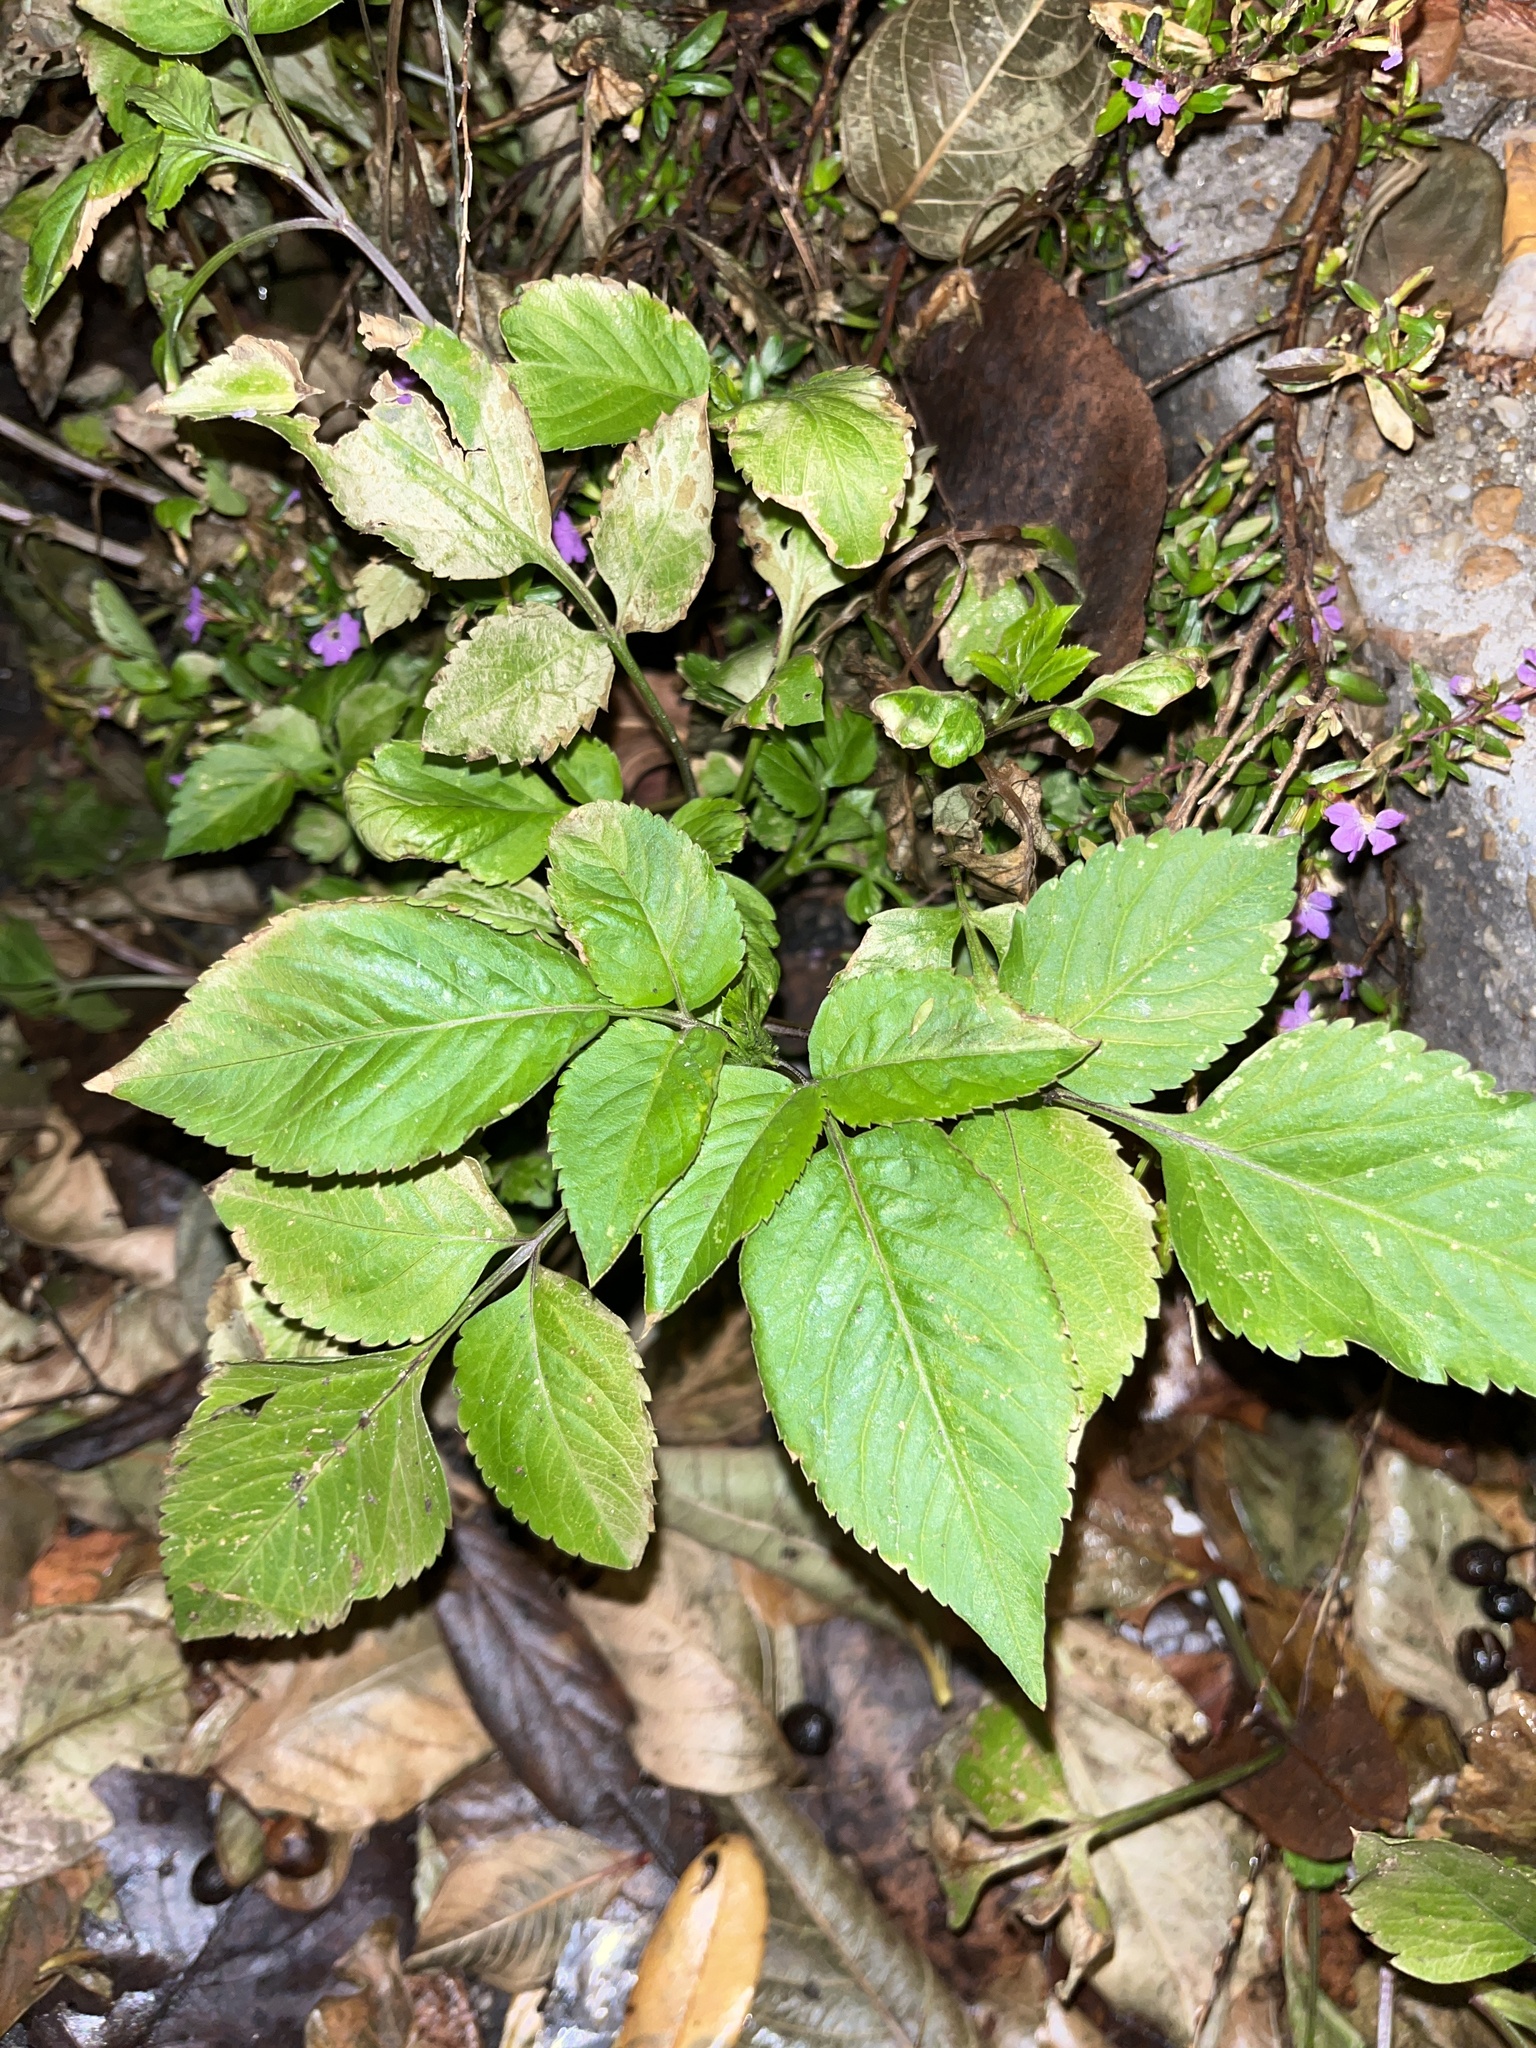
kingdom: Plantae
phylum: Tracheophyta
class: Magnoliopsida
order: Asterales
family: Asteraceae
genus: Bidens
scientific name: Bidens alba
